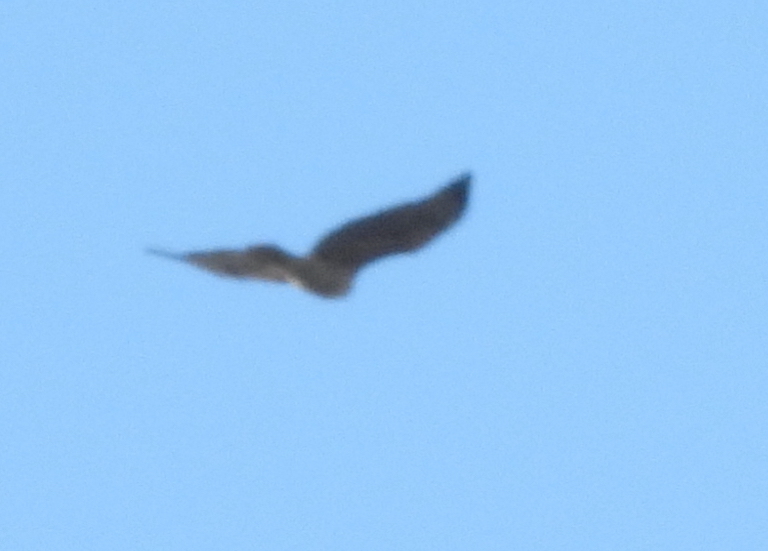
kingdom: Animalia
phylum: Chordata
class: Aves
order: Accipitriformes
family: Accipitridae
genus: Buteo
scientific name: Buteo
